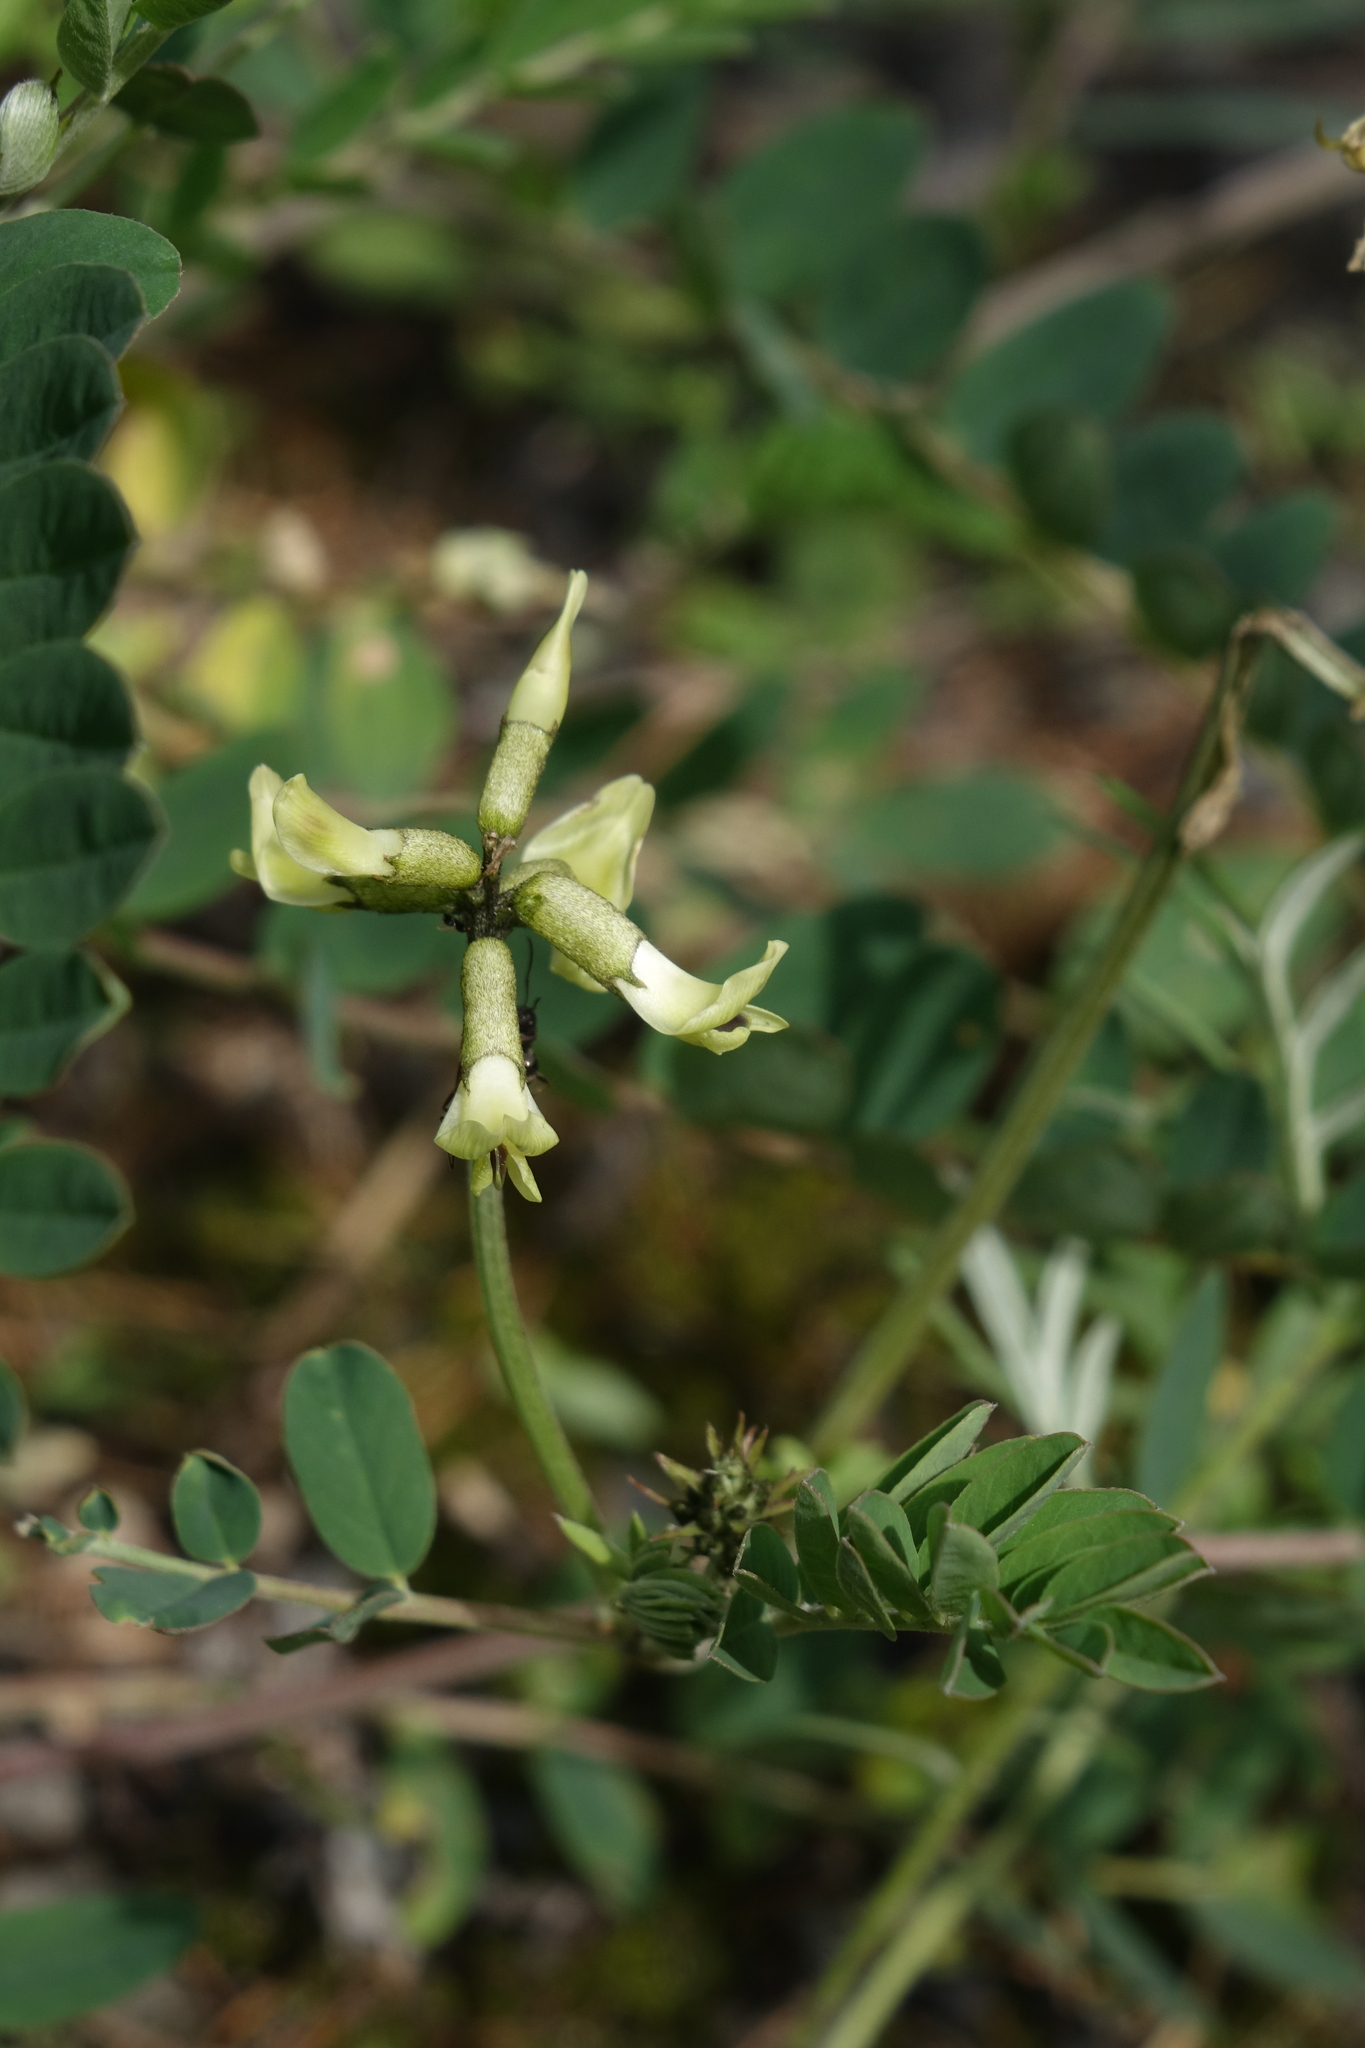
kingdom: Plantae
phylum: Tracheophyta
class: Magnoliopsida
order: Fabales
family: Fabaceae
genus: Astragalus
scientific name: Astragalus schelichowii
